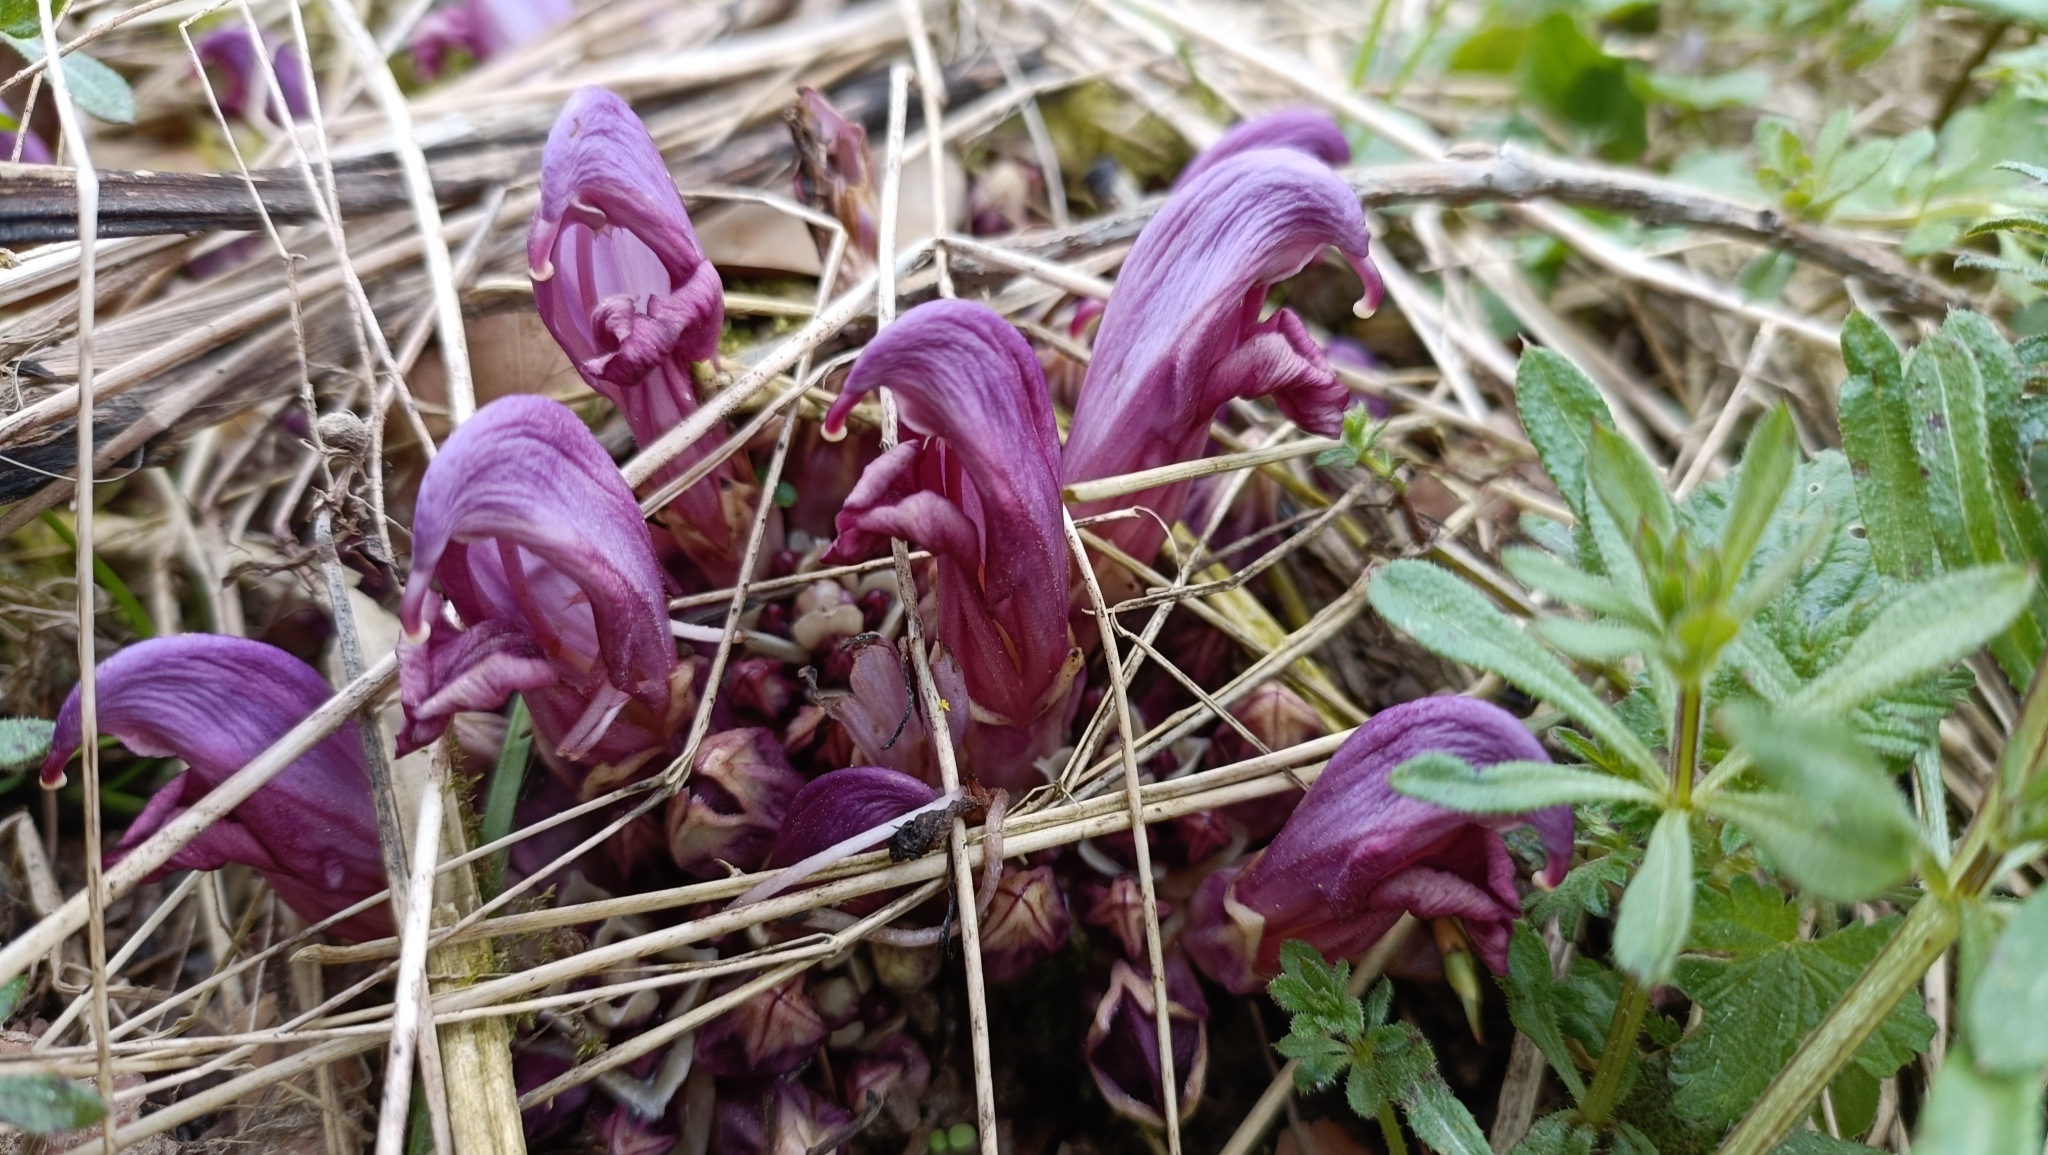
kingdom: Plantae
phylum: Tracheophyta
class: Magnoliopsida
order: Lamiales
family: Orobanchaceae
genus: Lathraea
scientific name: Lathraea clandestina
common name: Purple toothwort
